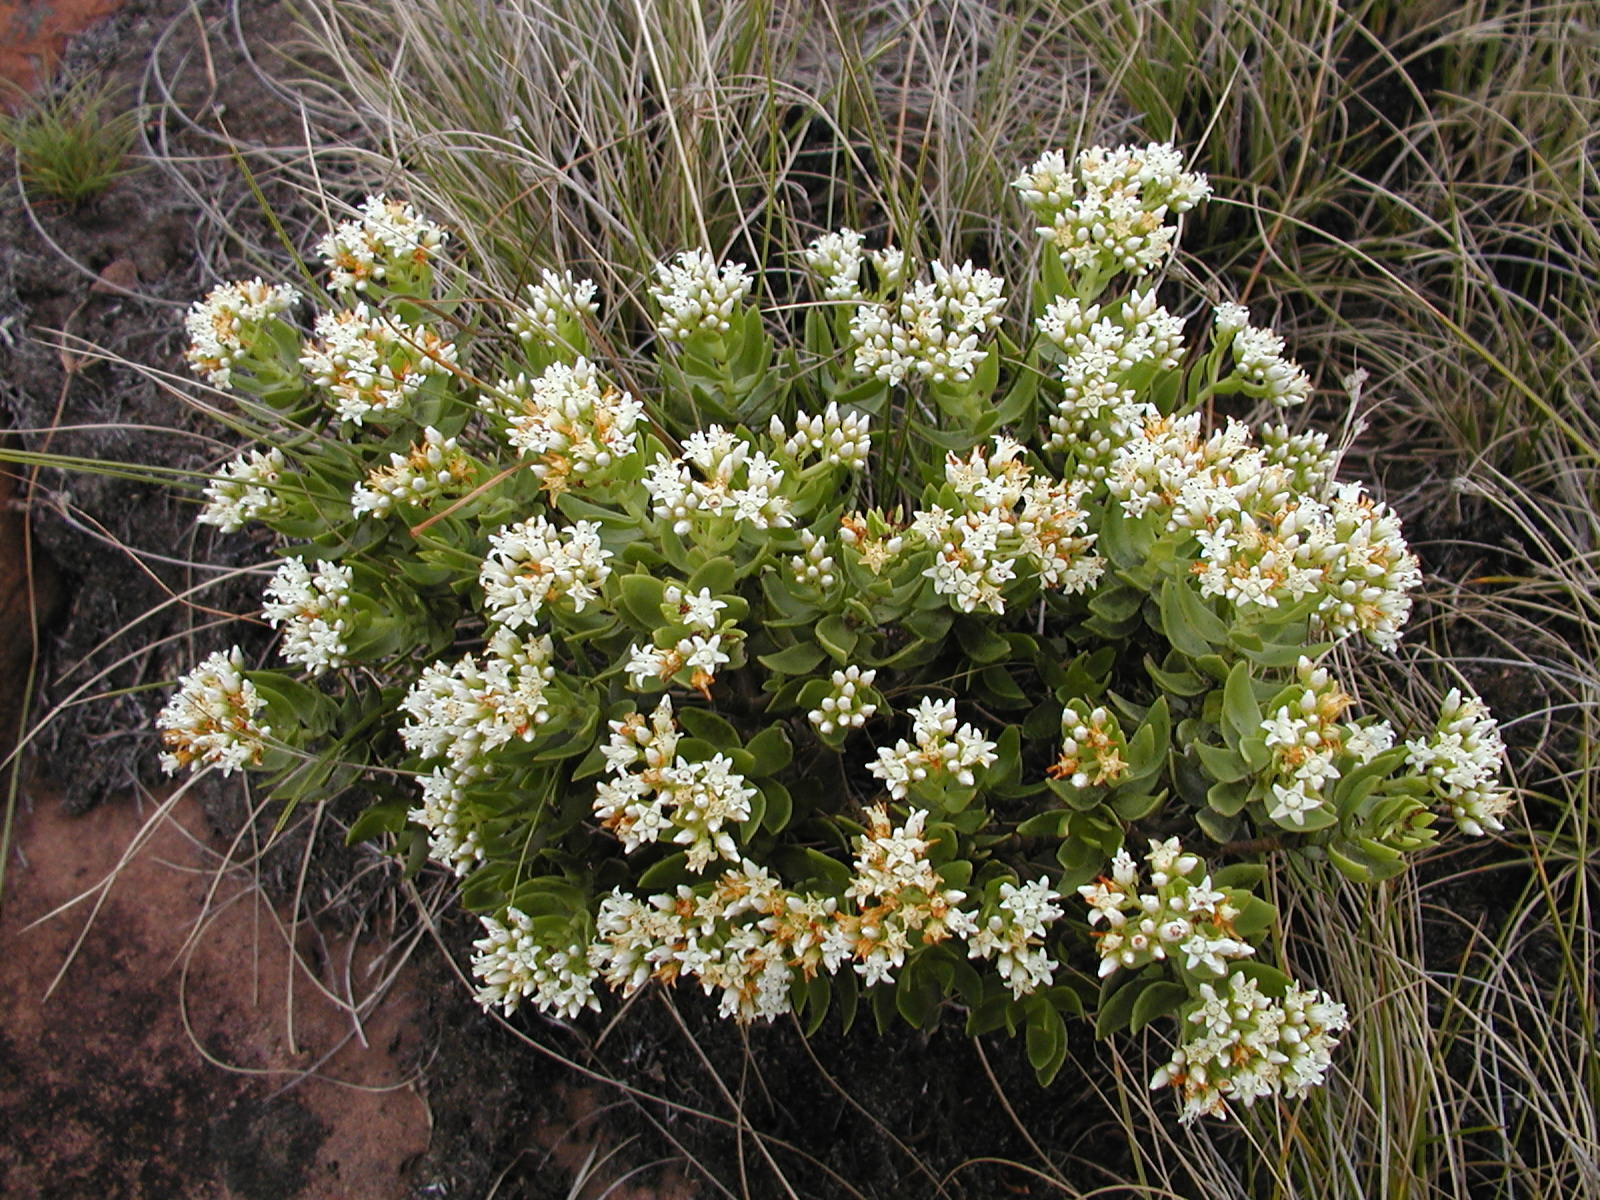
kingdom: Plantae
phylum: Tracheophyta
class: Magnoliopsida
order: Saxifragales
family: Crassulaceae
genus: Crassula
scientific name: Crassula sarcocaulis
